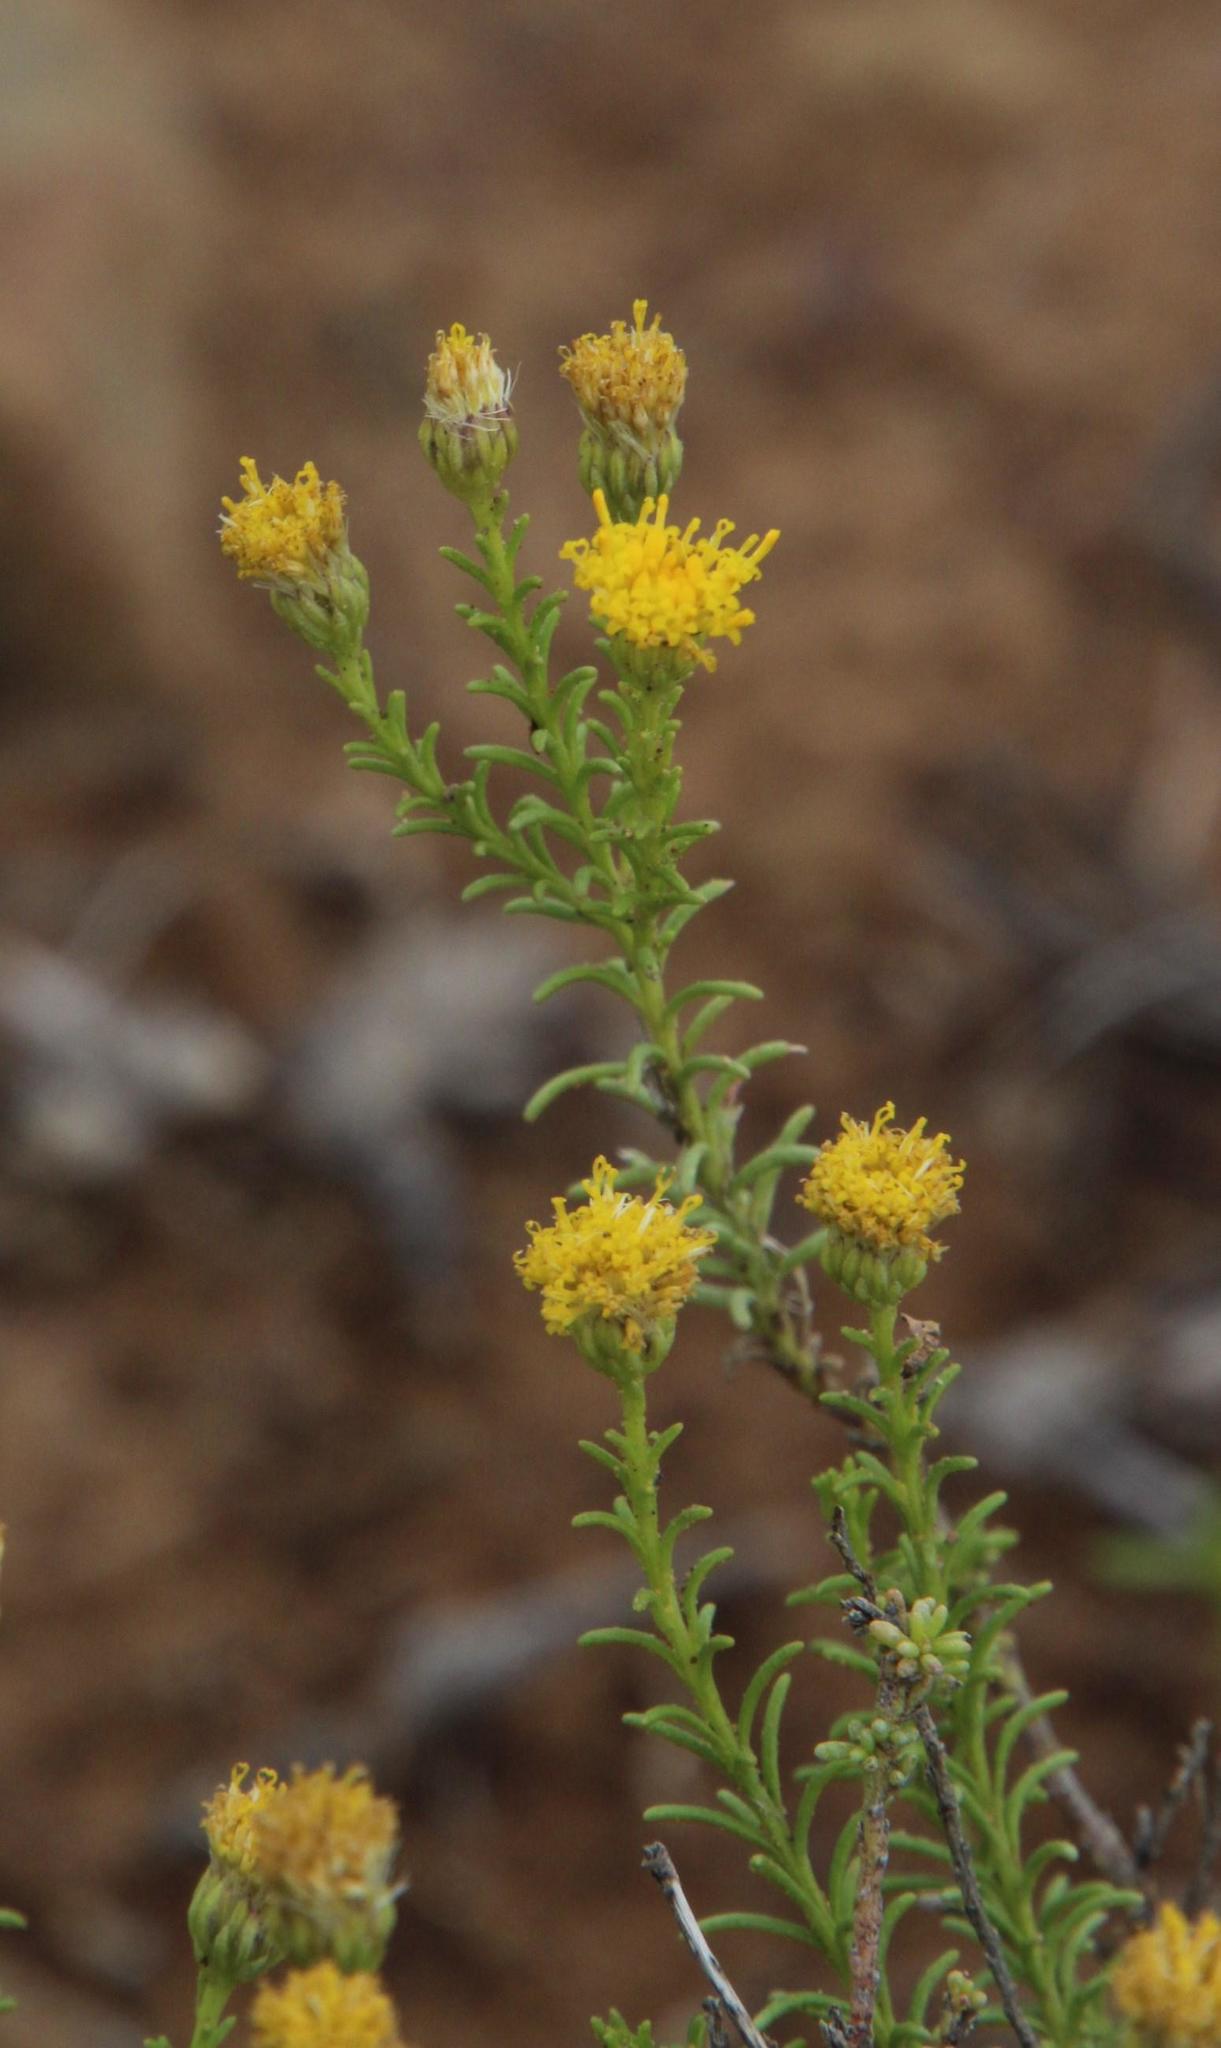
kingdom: Plantae
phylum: Tracheophyta
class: Magnoliopsida
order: Asterales
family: Asteraceae
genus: Chrysocoma
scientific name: Chrysocoma ciliata
